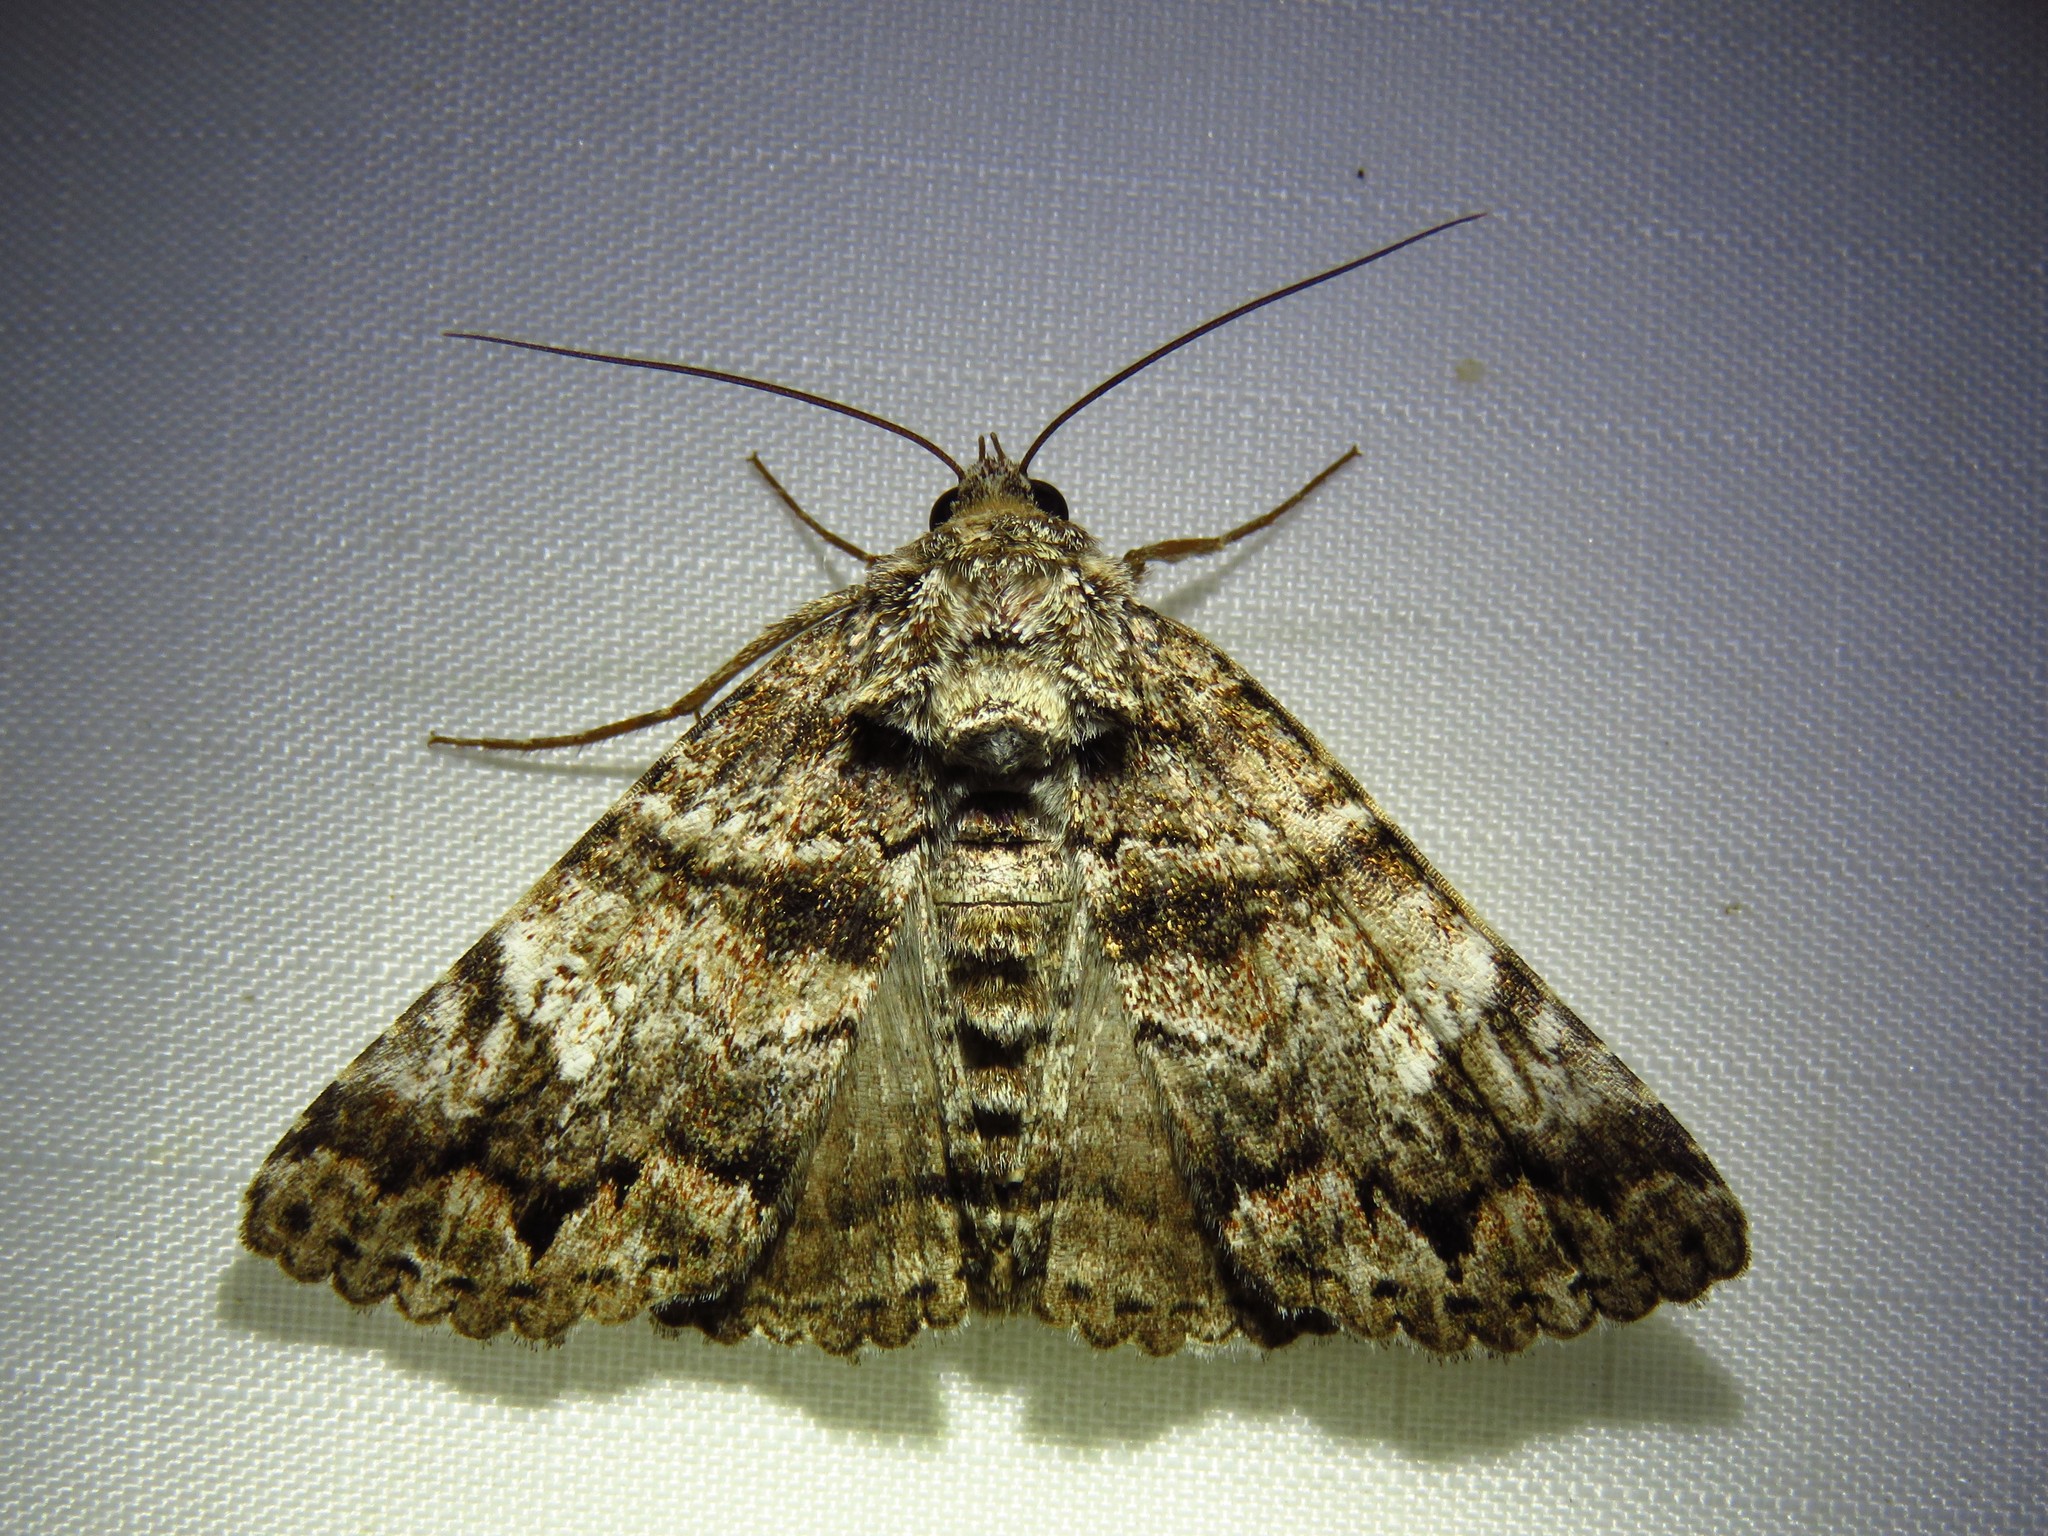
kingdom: Animalia
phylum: Arthropoda
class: Insecta
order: Lepidoptera
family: Erebidae
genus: Metria
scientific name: Metria amella
